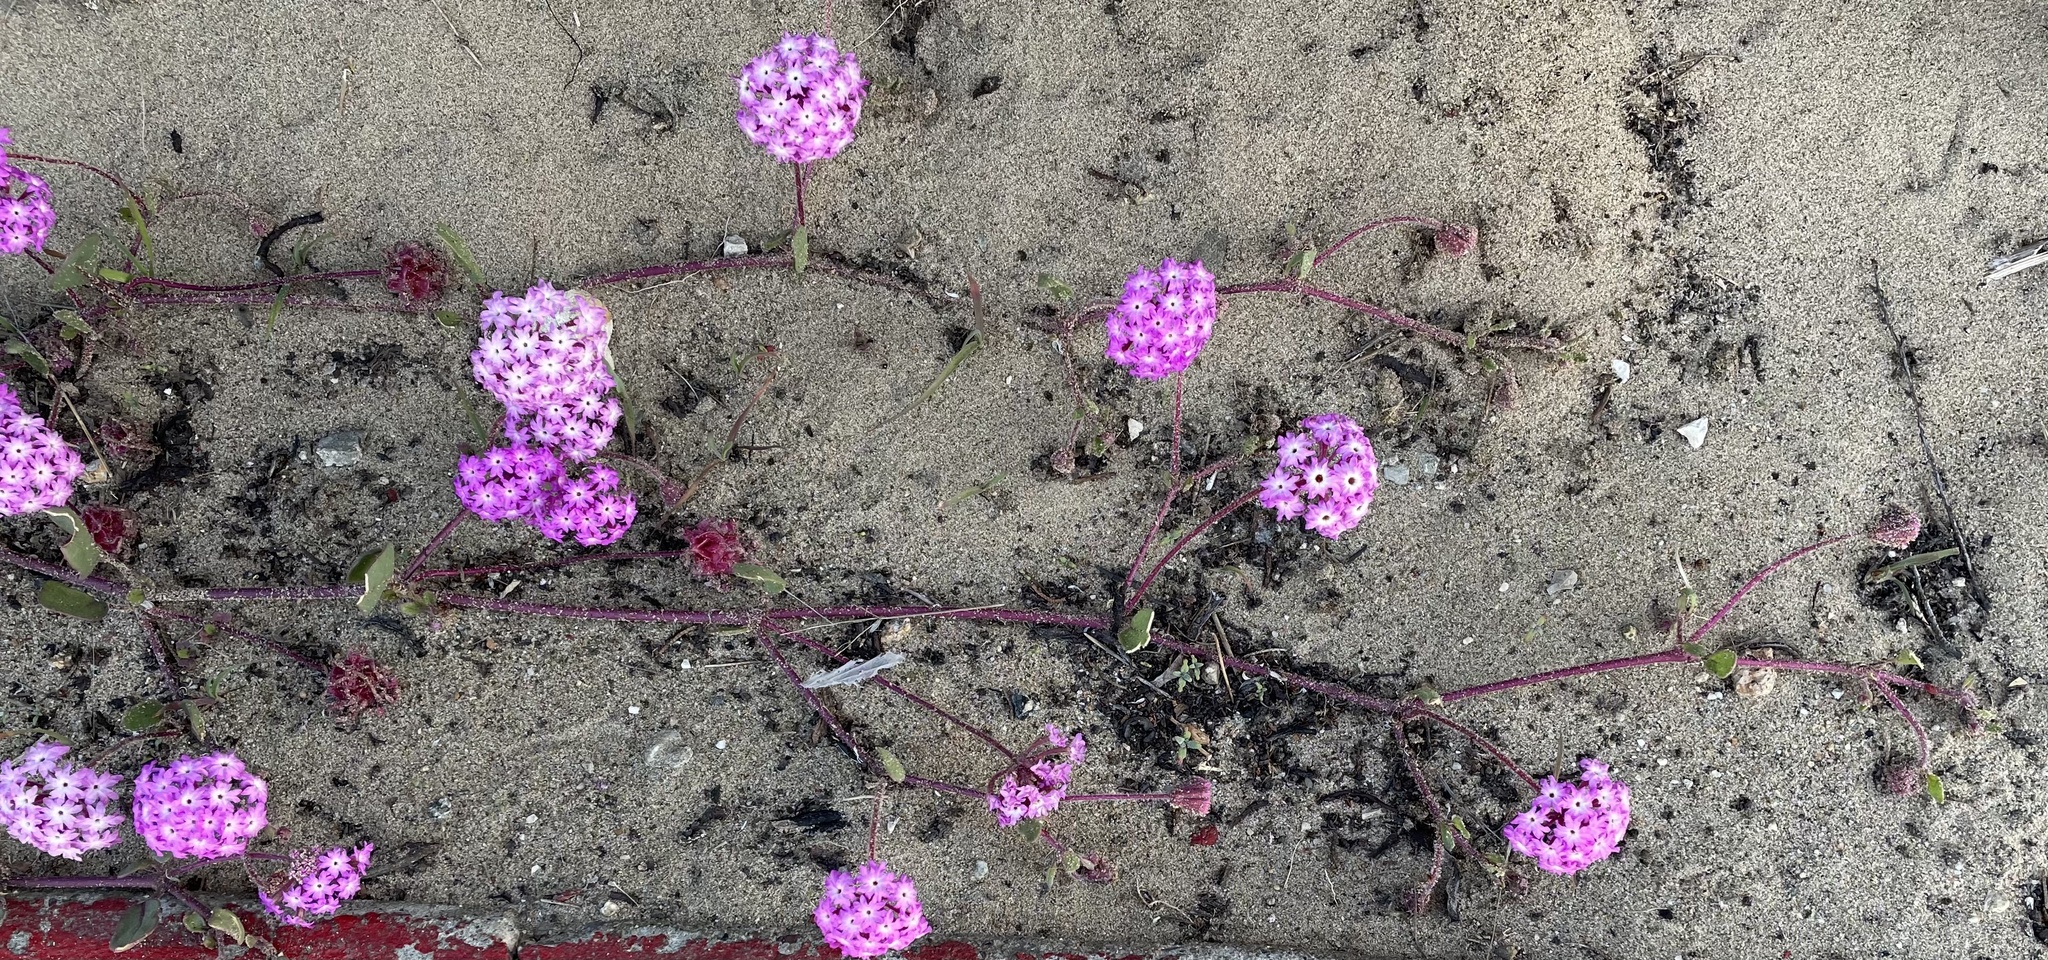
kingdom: Plantae
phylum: Tracheophyta
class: Magnoliopsida
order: Caryophyllales
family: Nyctaginaceae
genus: Abronia
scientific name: Abronia umbellata
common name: Sand-verbena
